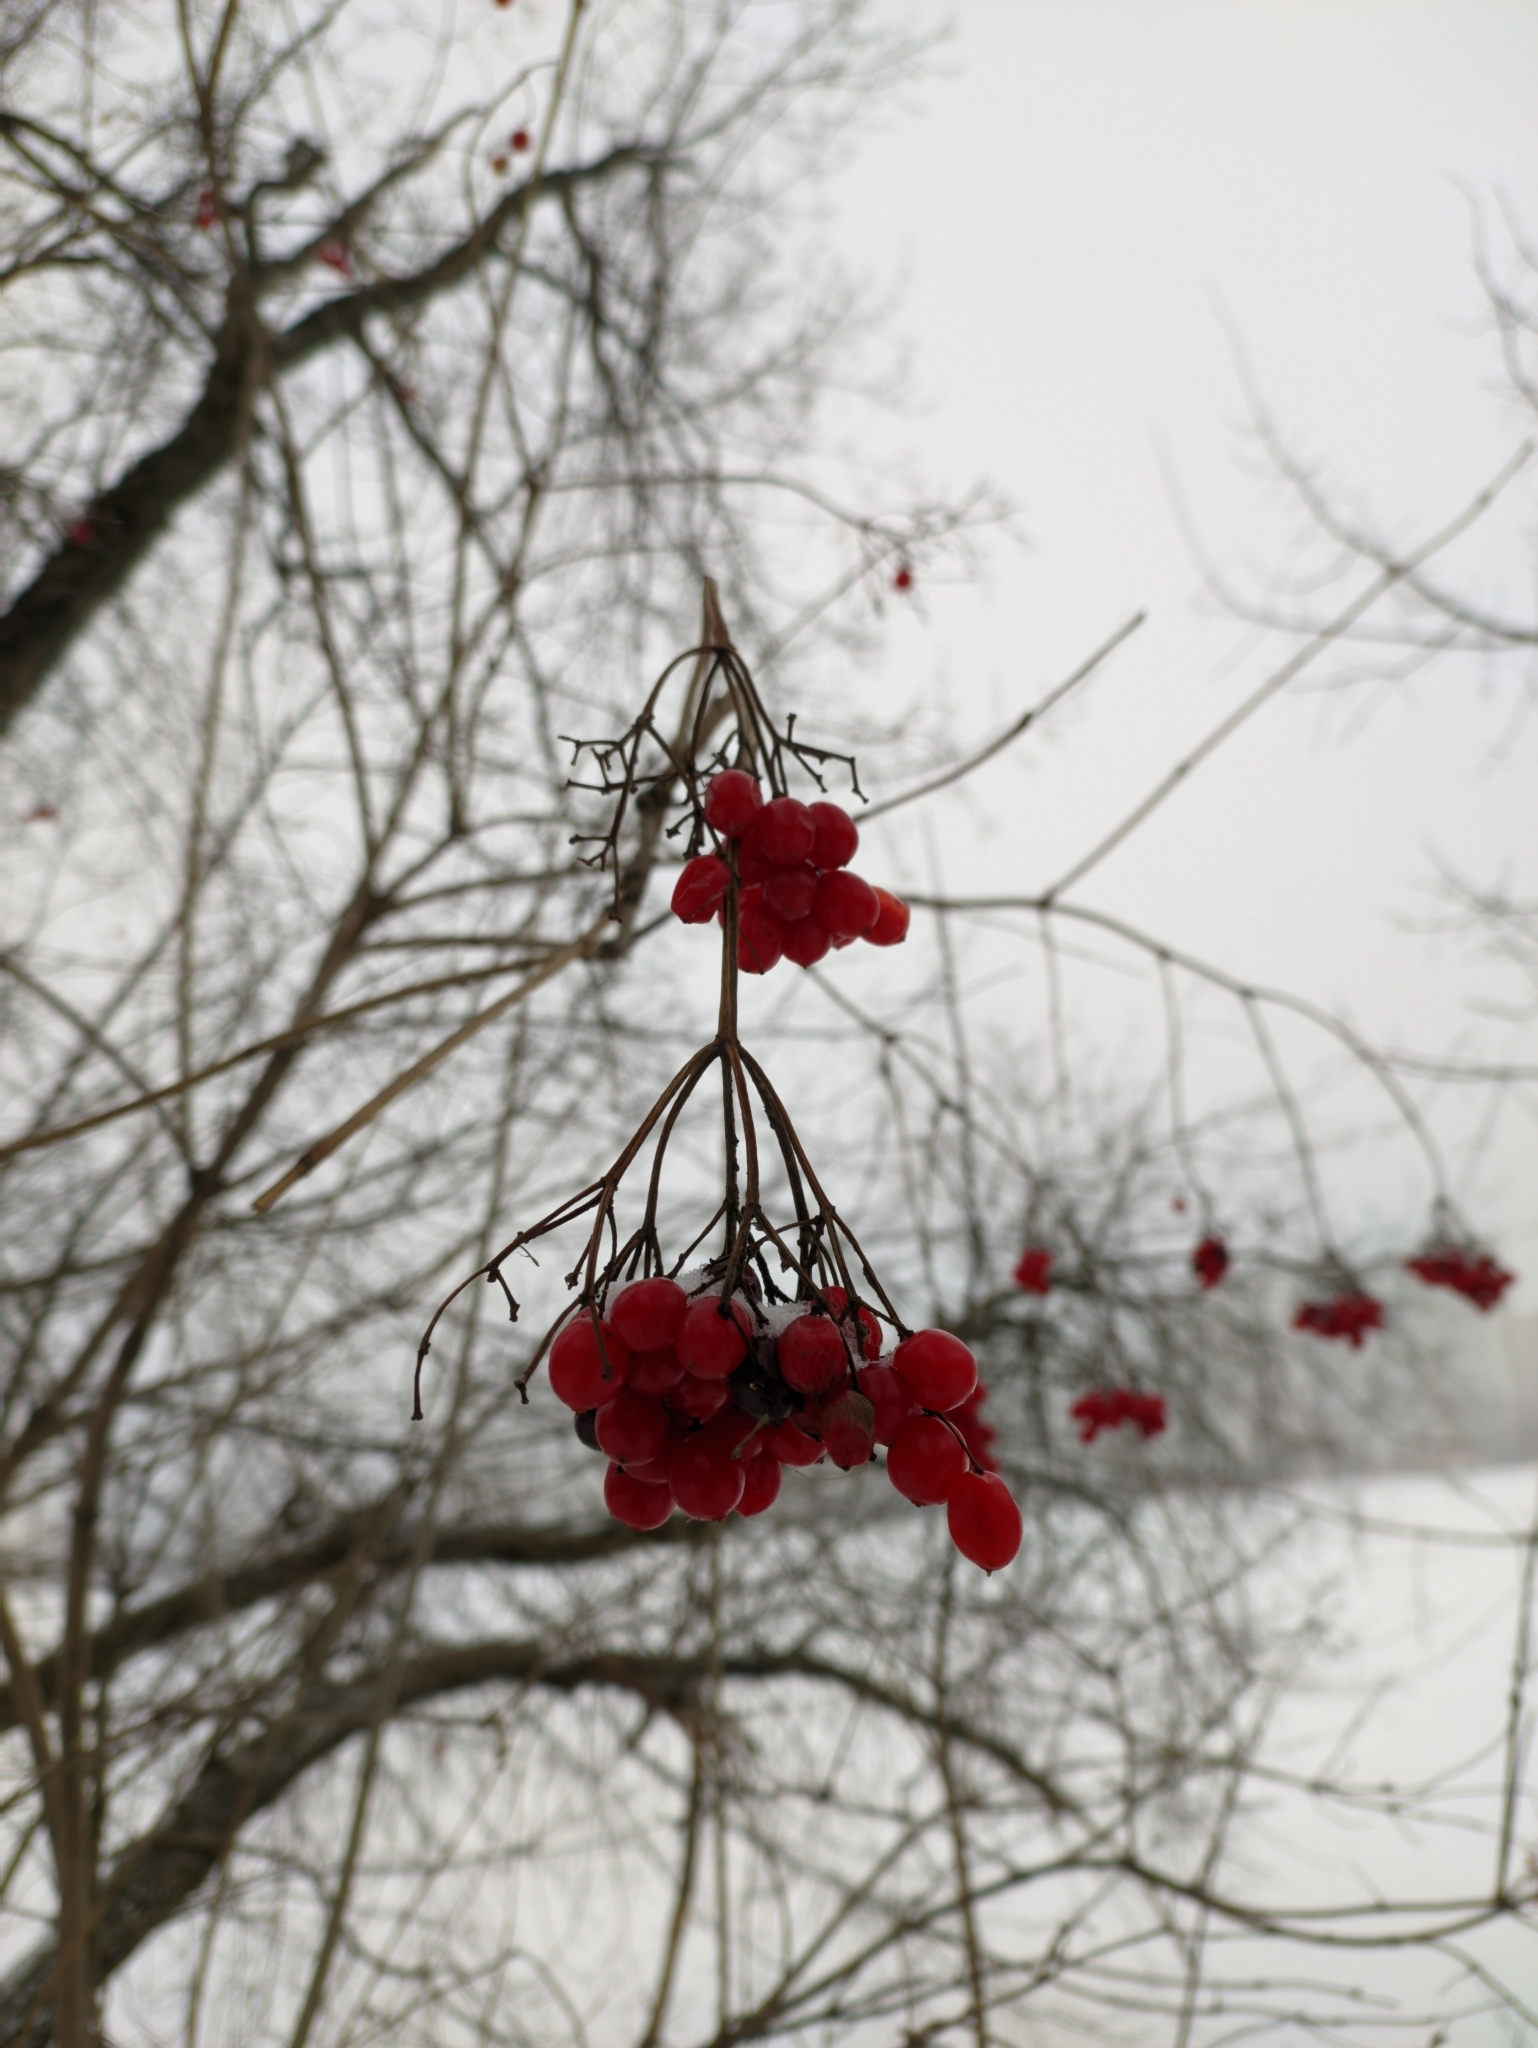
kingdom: Plantae
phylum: Tracheophyta
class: Magnoliopsida
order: Dipsacales
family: Viburnaceae
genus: Viburnum
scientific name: Viburnum opulus
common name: Guelder-rose
